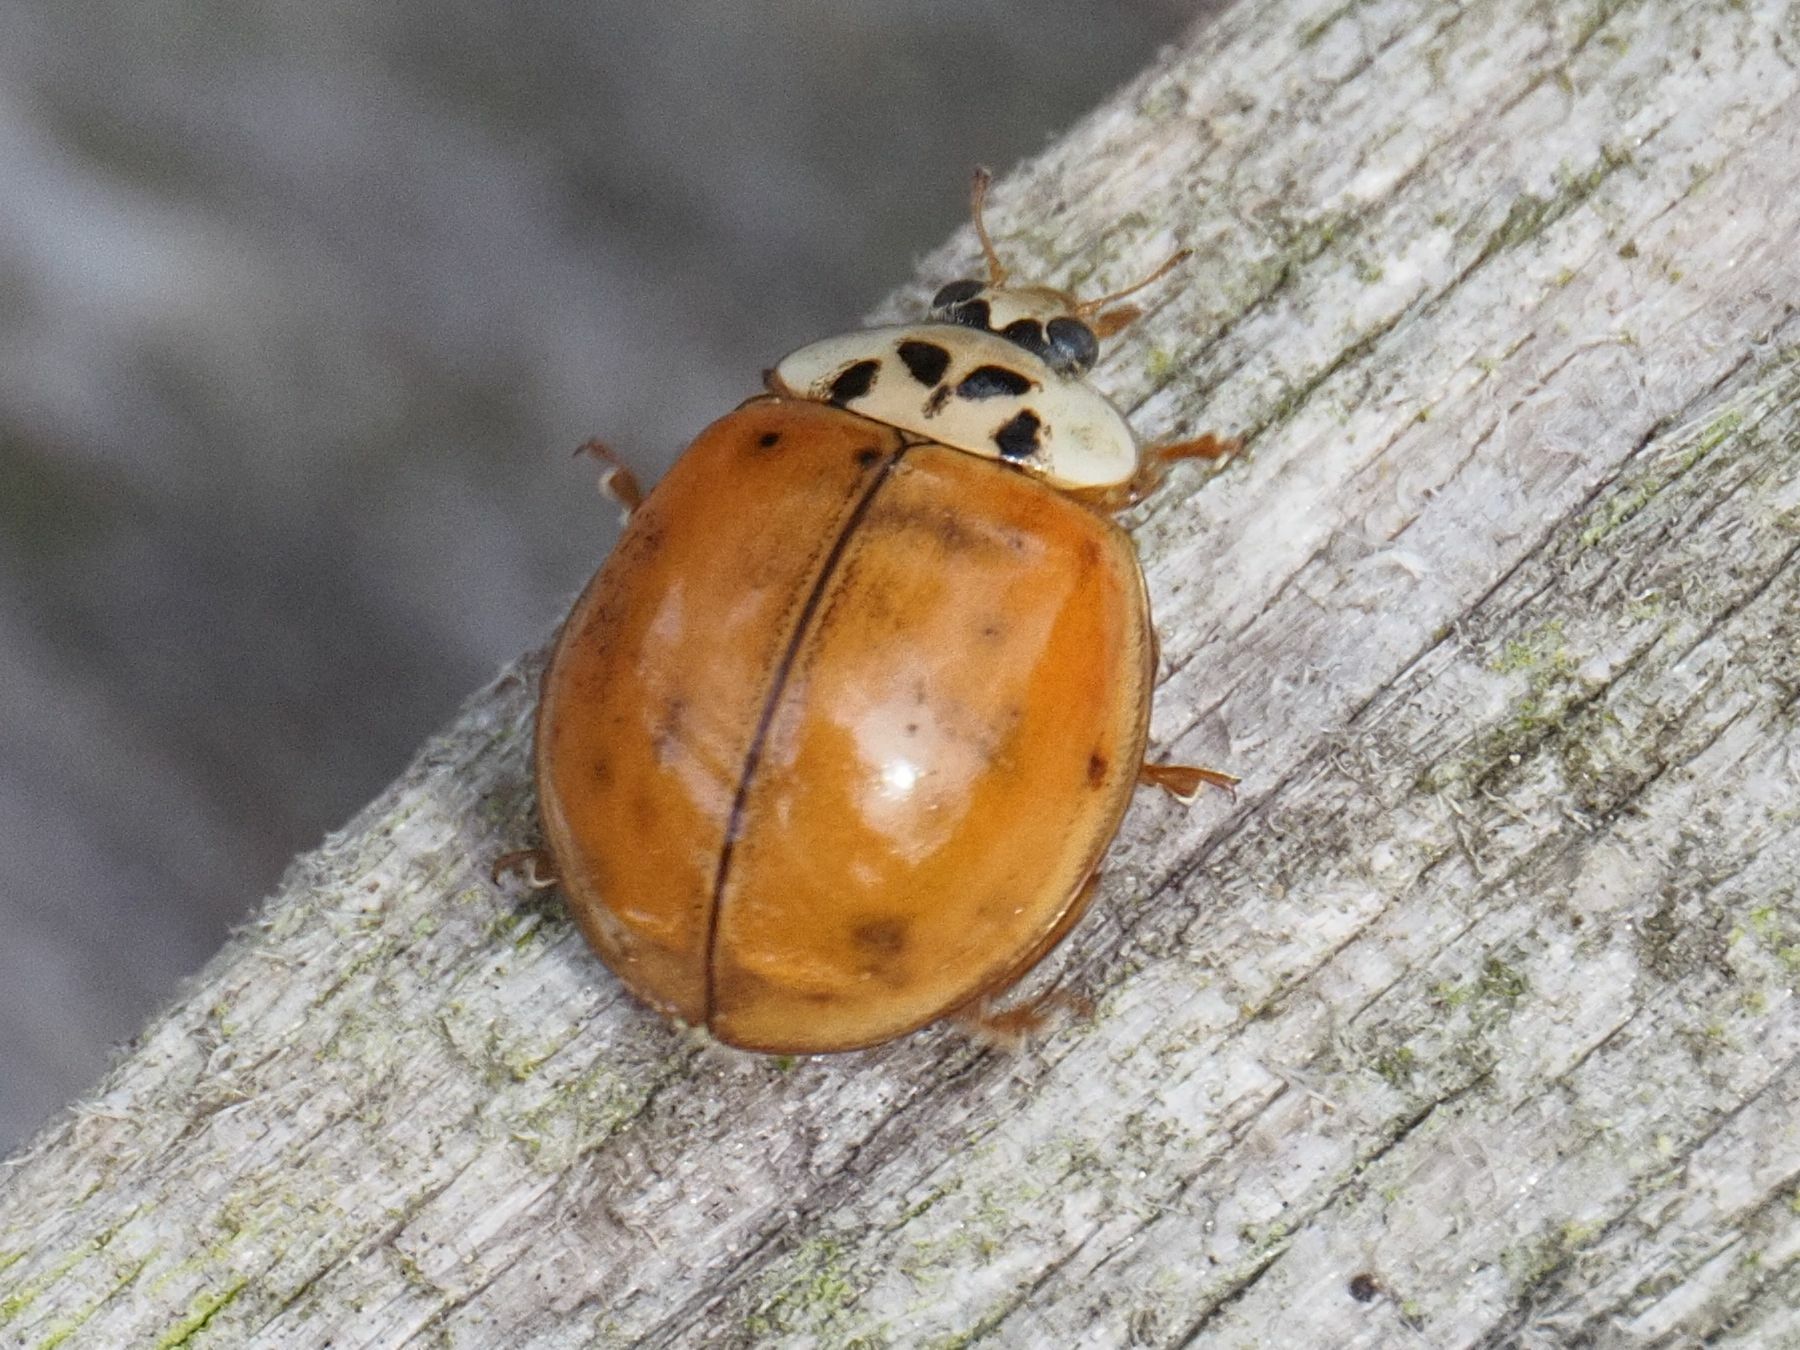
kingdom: Animalia
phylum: Arthropoda
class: Insecta
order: Coleoptera
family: Coccinellidae
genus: Harmonia
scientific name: Harmonia axyridis
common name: Harlequin ladybird
